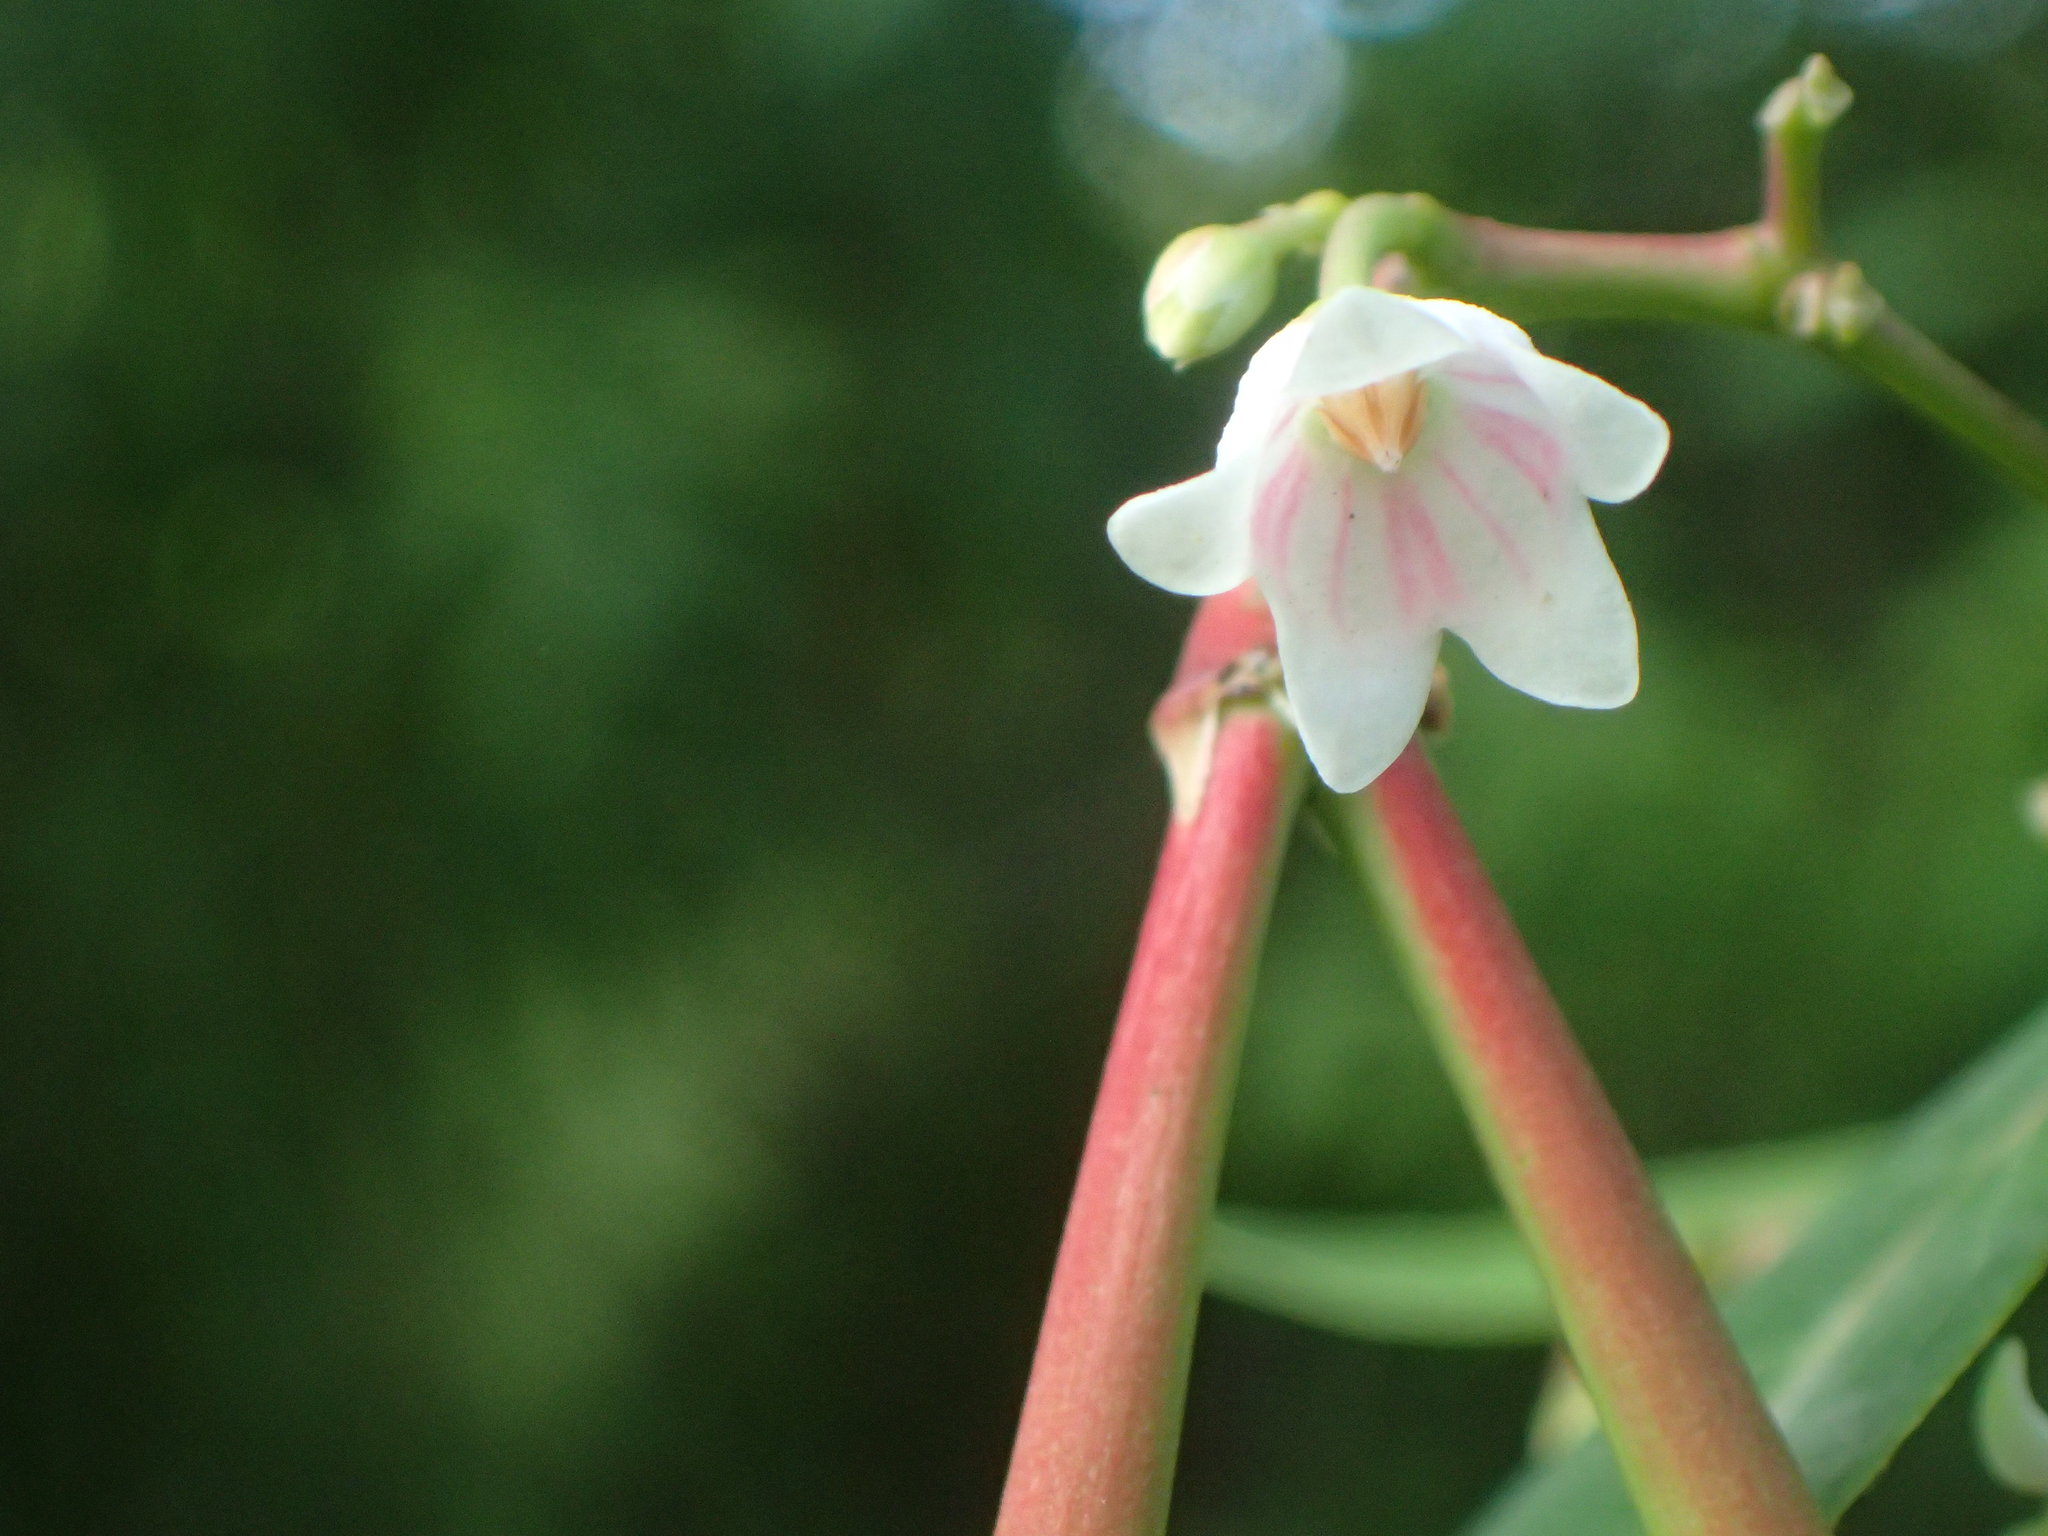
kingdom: Plantae
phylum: Tracheophyta
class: Magnoliopsida
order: Gentianales
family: Apocynaceae
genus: Apocynum
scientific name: Apocynum androsaemifolium
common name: Spreading dogbane
